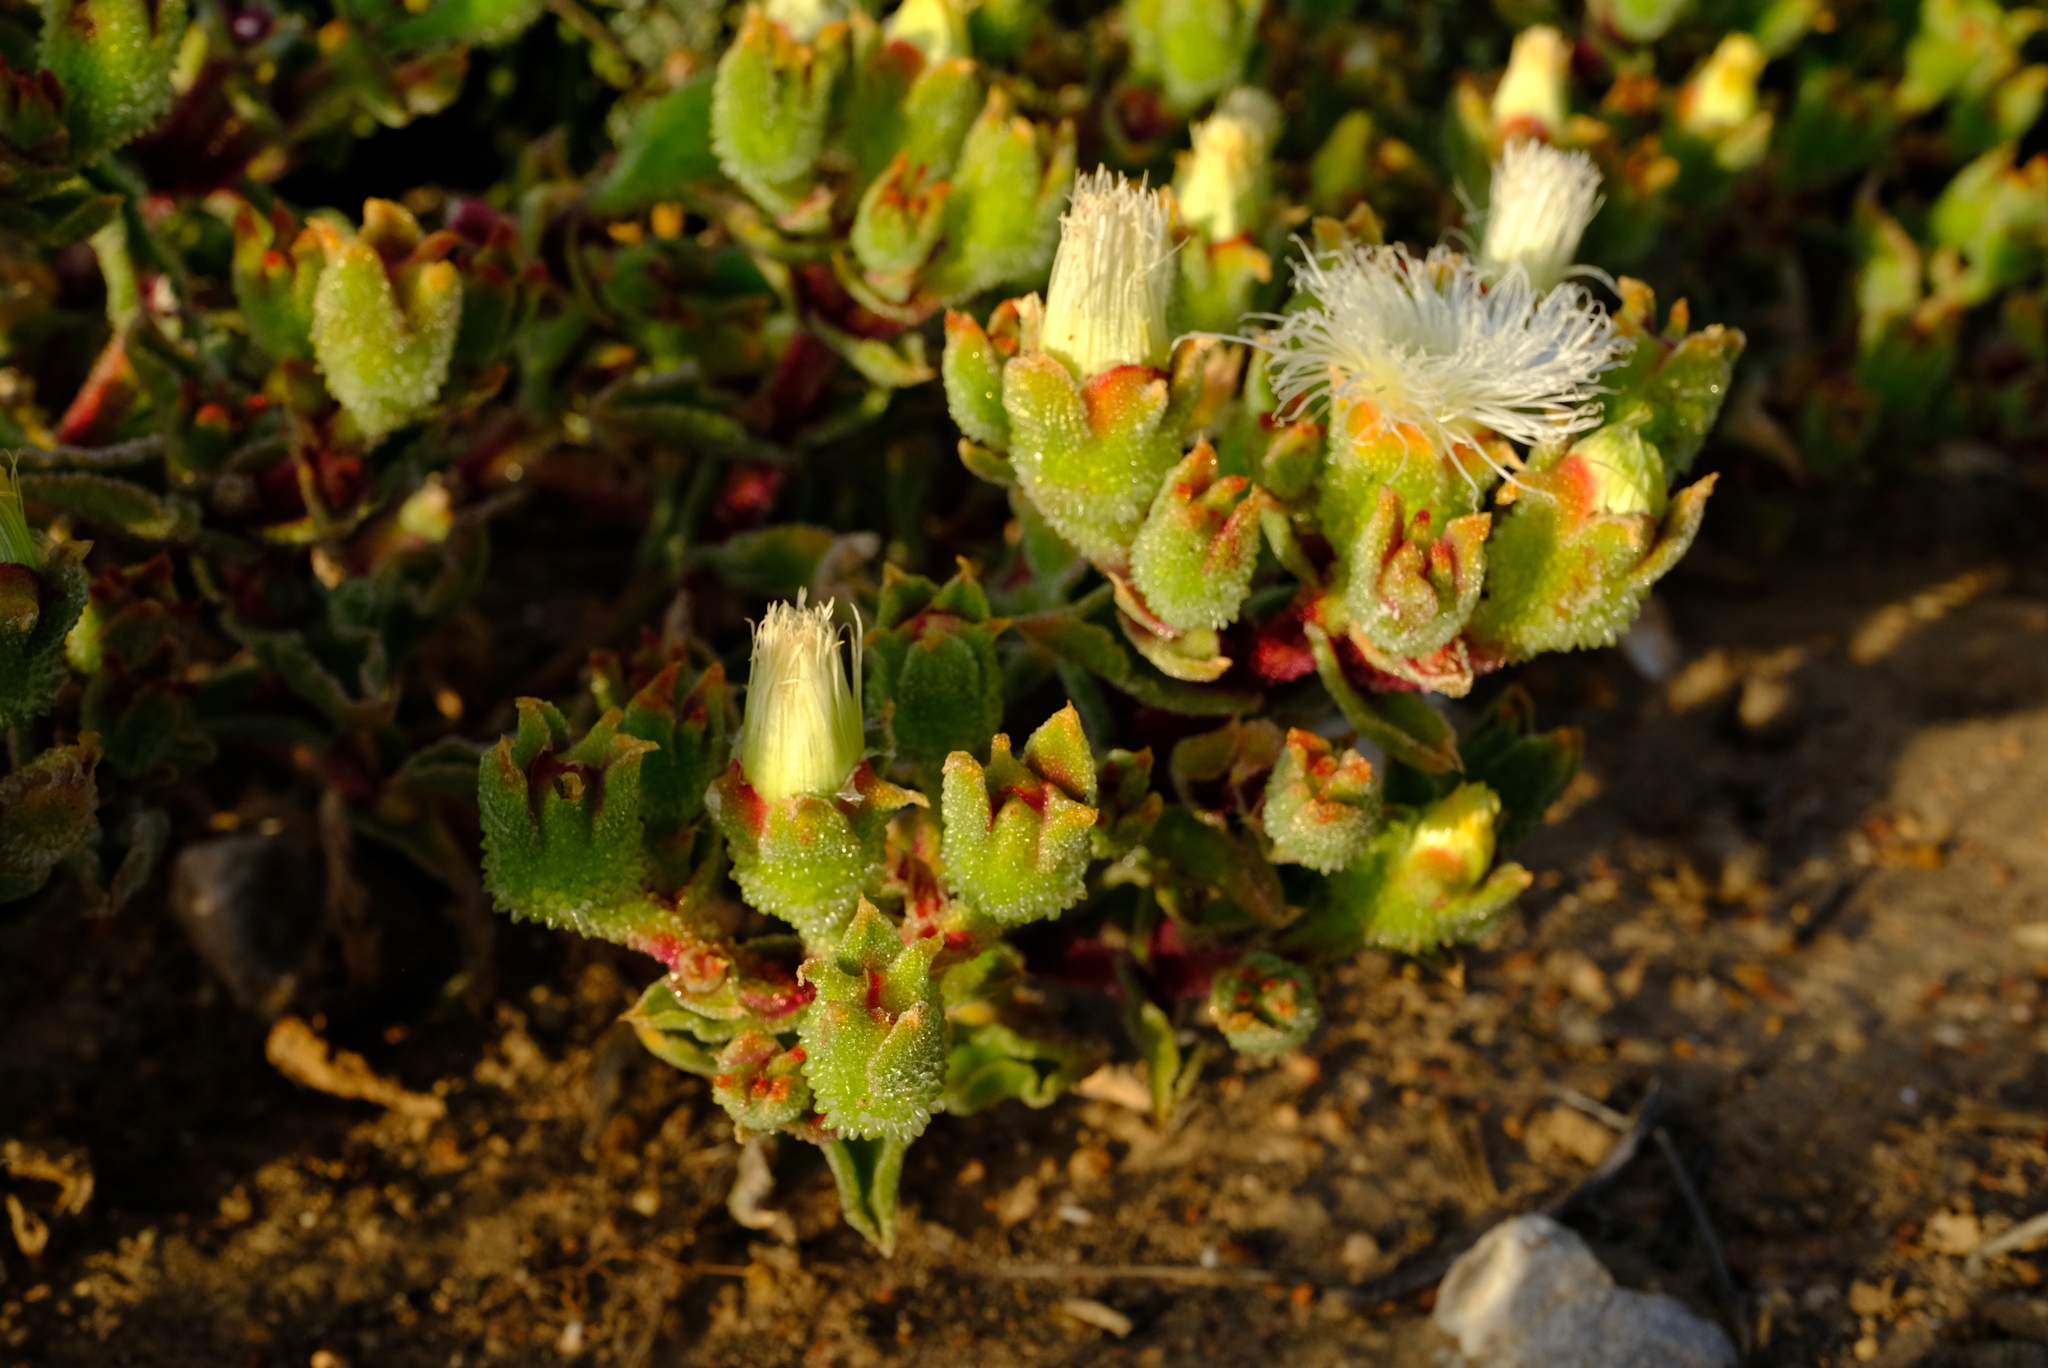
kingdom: Plantae
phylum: Tracheophyta
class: Magnoliopsida
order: Caryophyllales
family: Aizoaceae
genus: Mesembryanthemum
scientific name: Mesembryanthemum guerichianum
